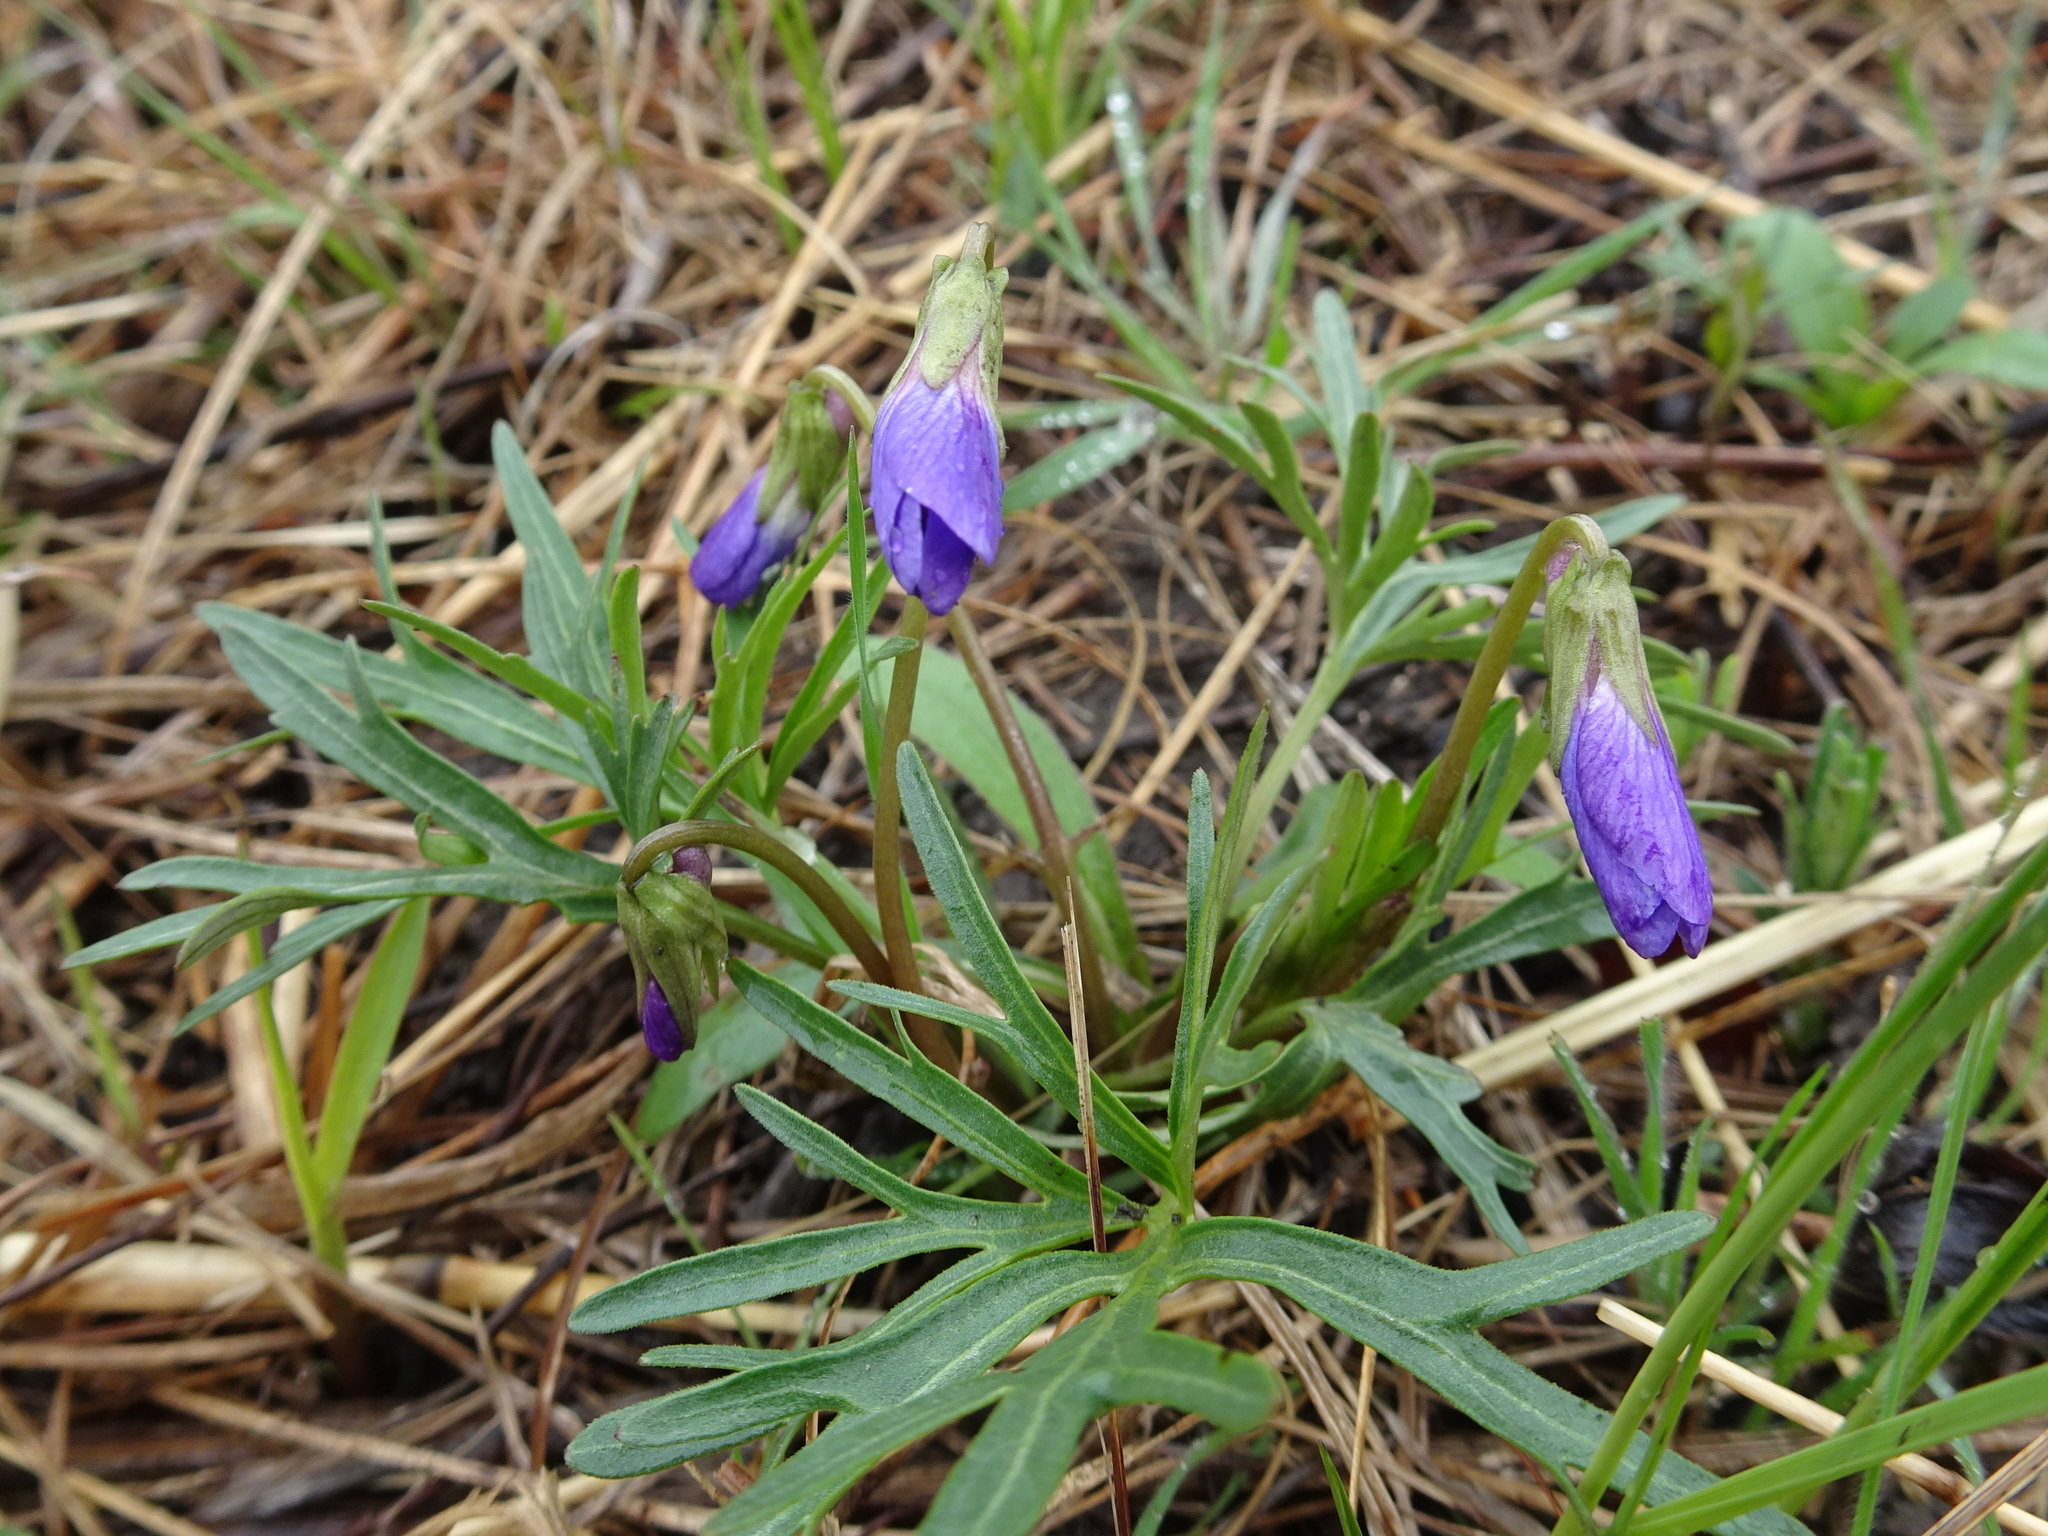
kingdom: Plantae
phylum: Tracheophyta
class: Magnoliopsida
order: Malpighiales
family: Violaceae
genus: Viola
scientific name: Viola pedatifida
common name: Prairie violet
